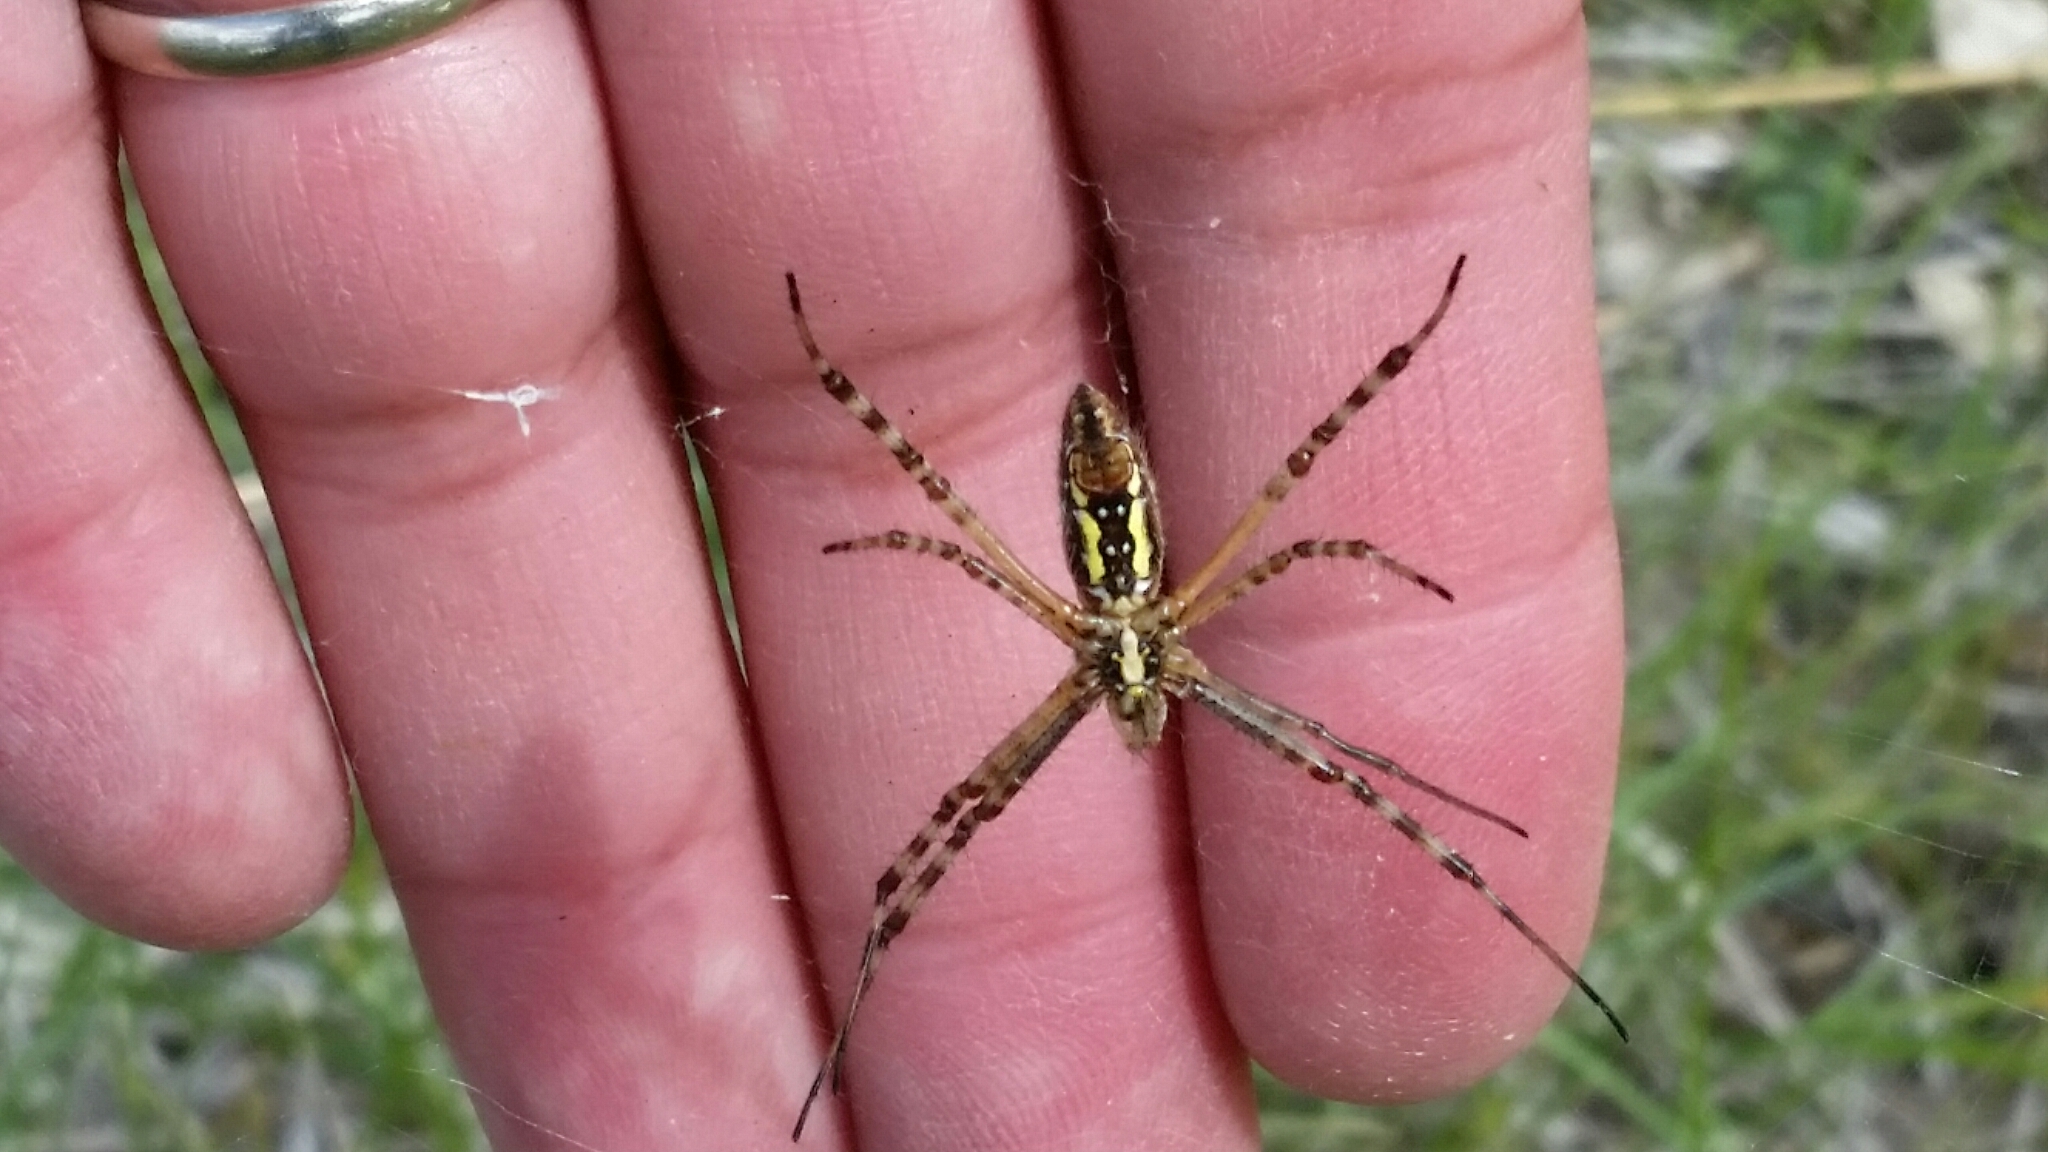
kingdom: Animalia
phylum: Arthropoda
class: Arachnida
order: Araneae
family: Araneidae
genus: Argiope
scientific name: Argiope trifasciata
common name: Banded garden spider
